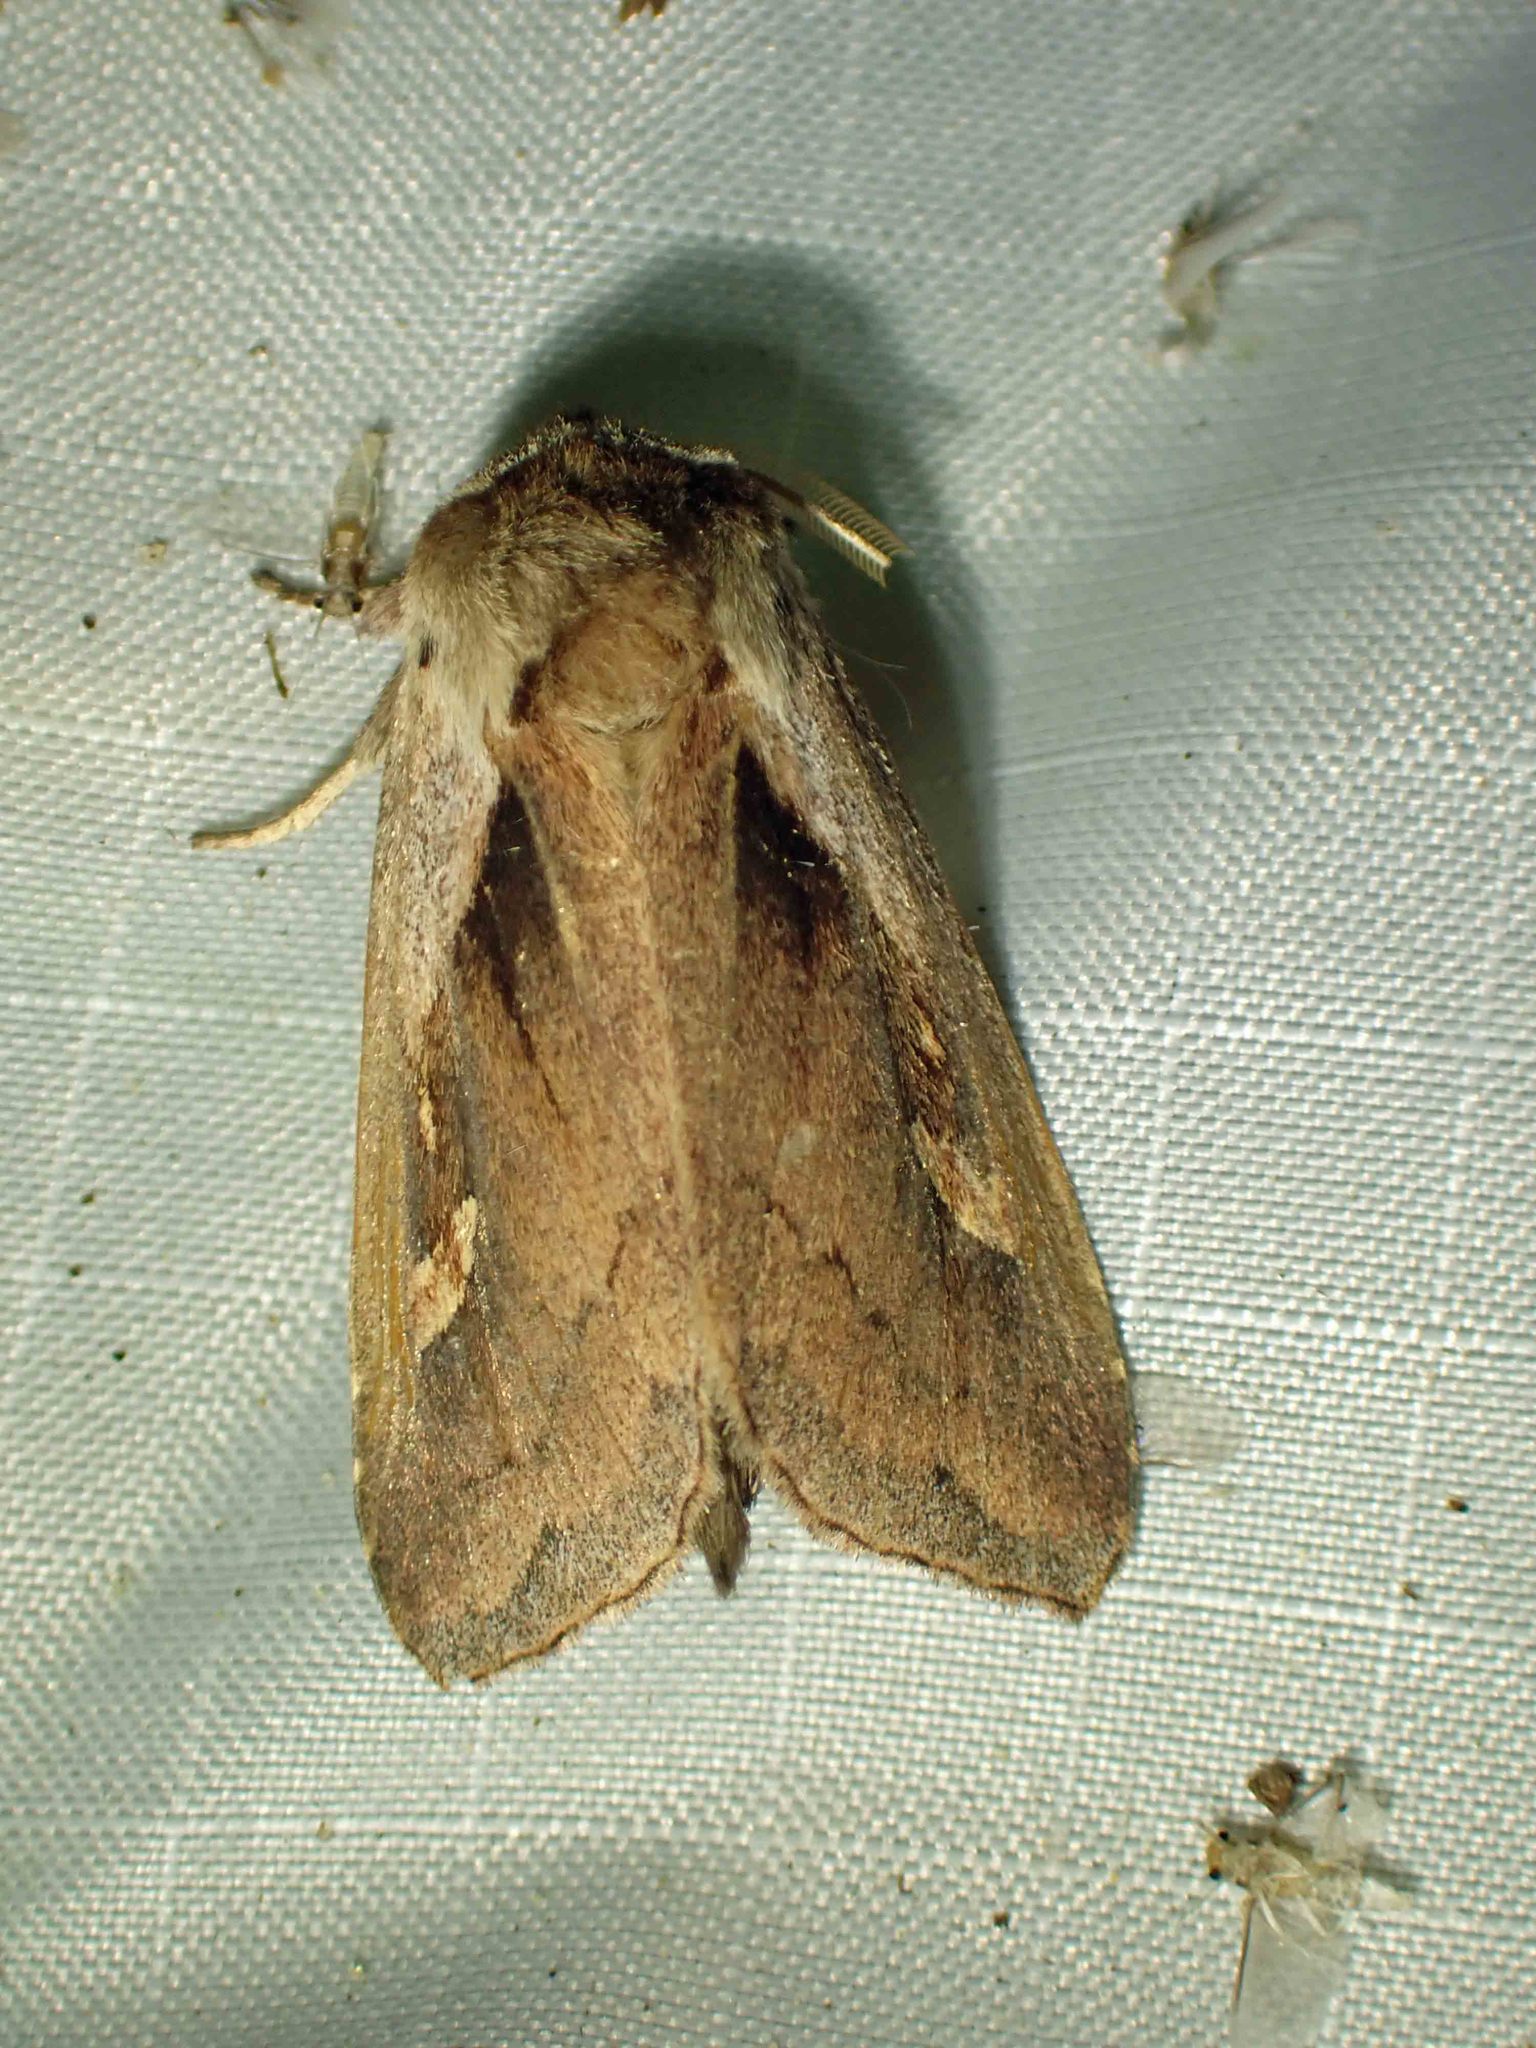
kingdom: Animalia
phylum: Arthropoda
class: Insecta
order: Lepidoptera
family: Noctuidae
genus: Bellura
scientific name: Bellura obliqua
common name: Cattail borer moth
